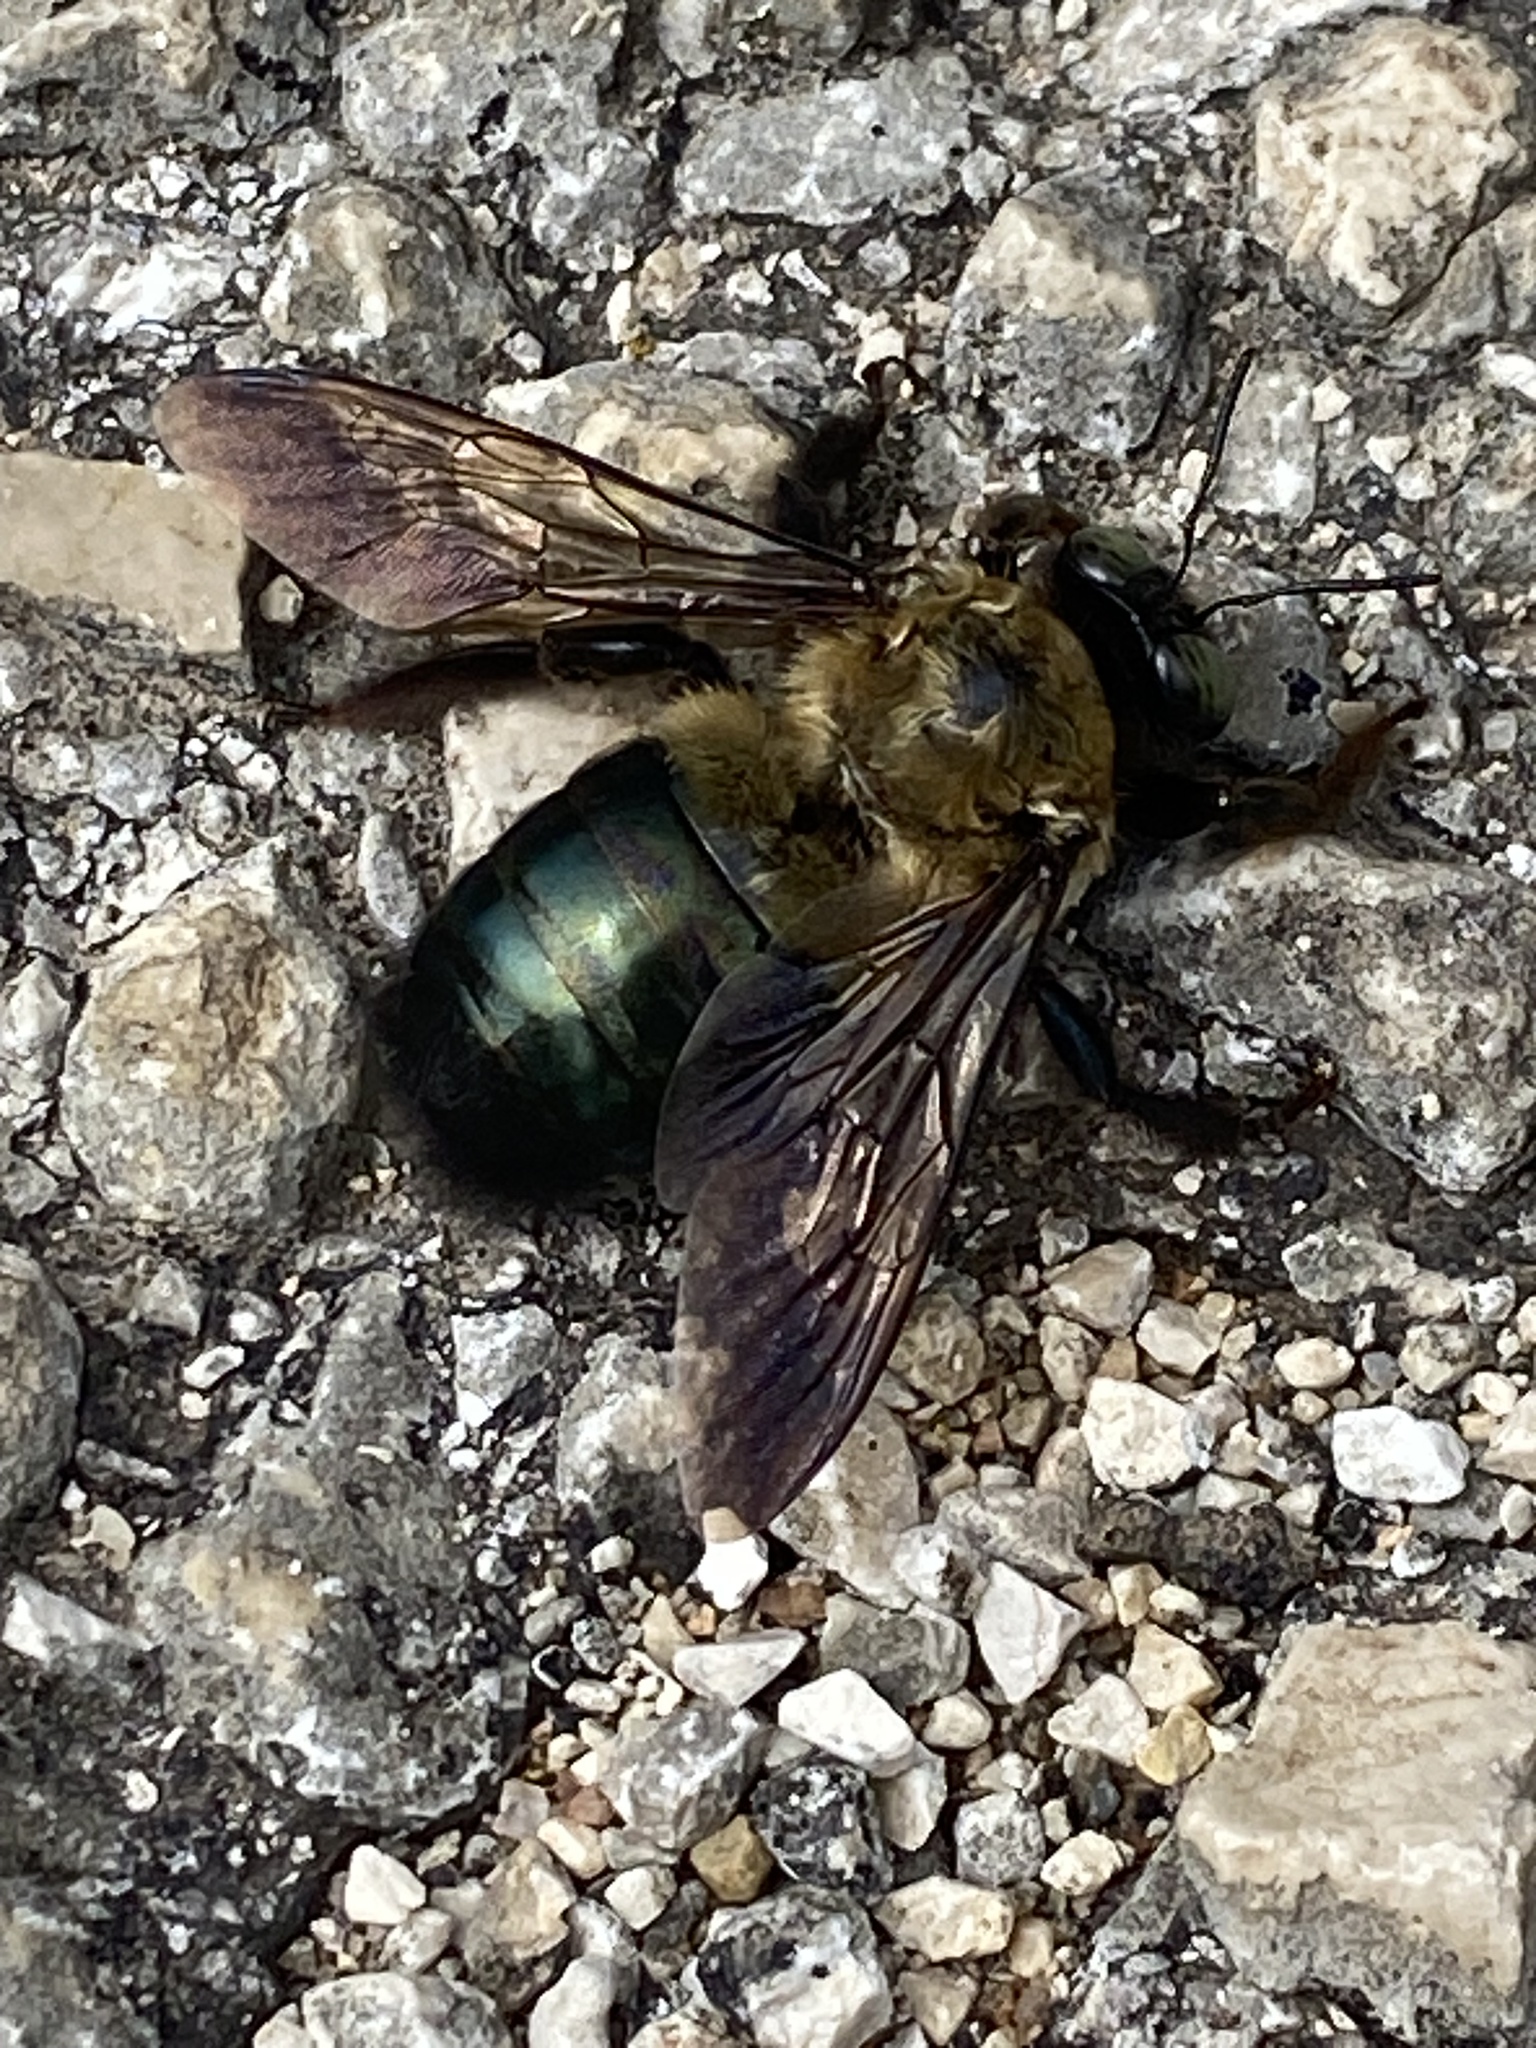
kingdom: Animalia
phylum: Arthropoda
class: Insecta
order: Hymenoptera
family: Apidae
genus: Xylocopa
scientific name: Xylocopa virginica
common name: Carpenter bee
